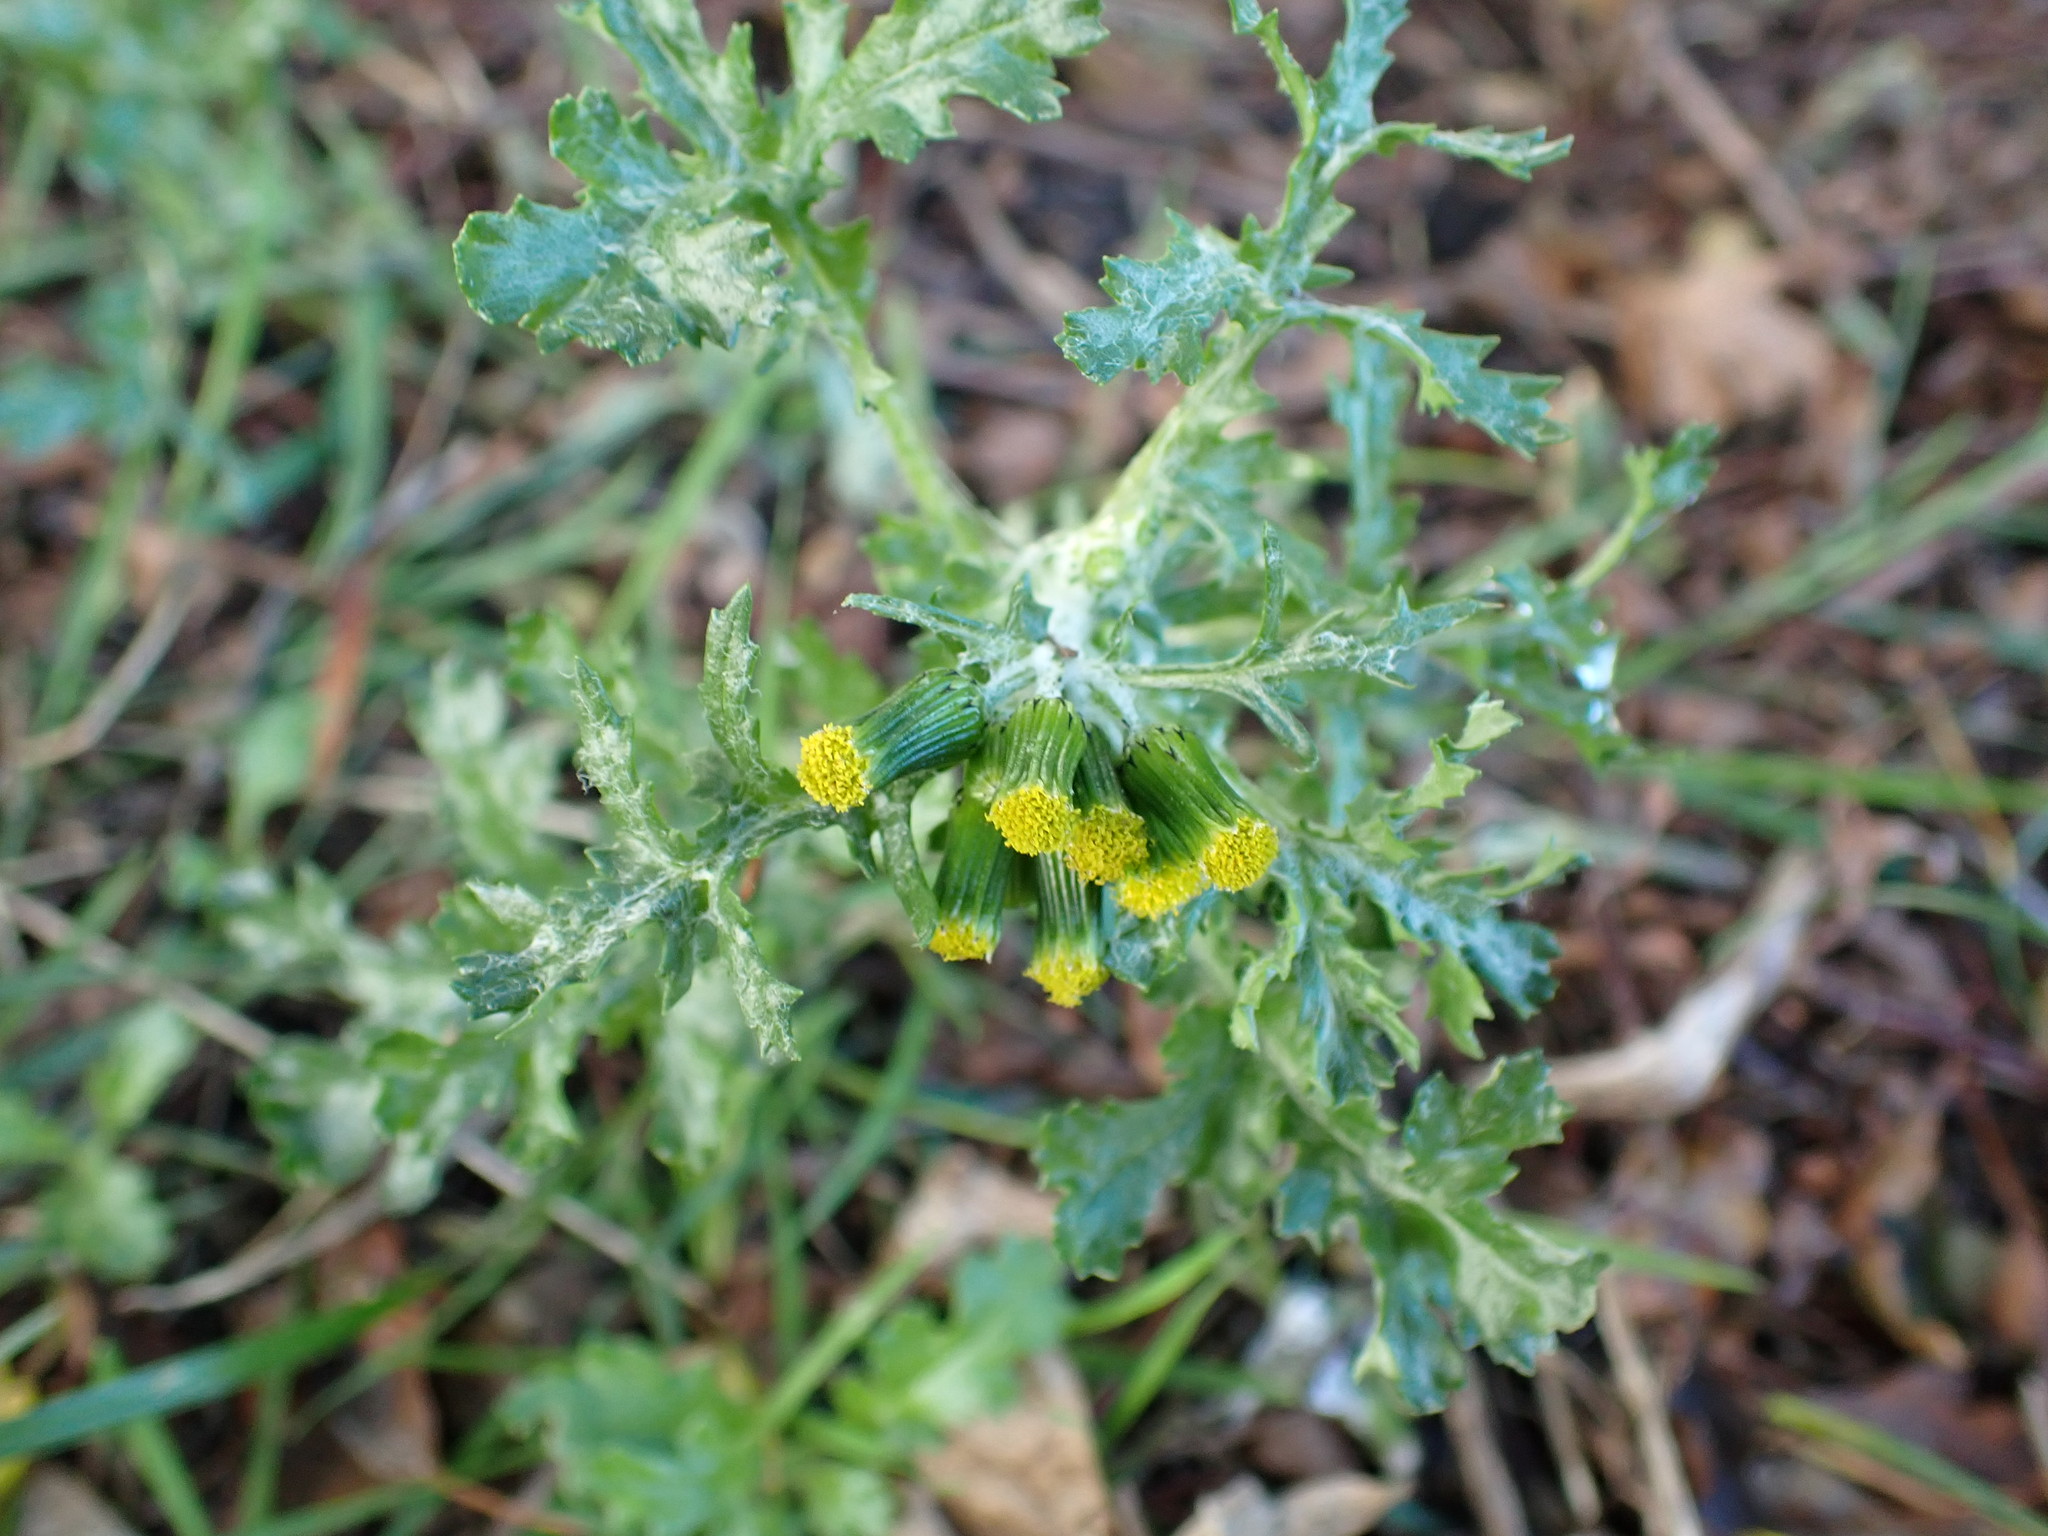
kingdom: Plantae
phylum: Tracheophyta
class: Magnoliopsida
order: Asterales
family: Asteraceae
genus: Senecio
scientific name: Senecio vulgaris
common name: Old-man-in-the-spring
